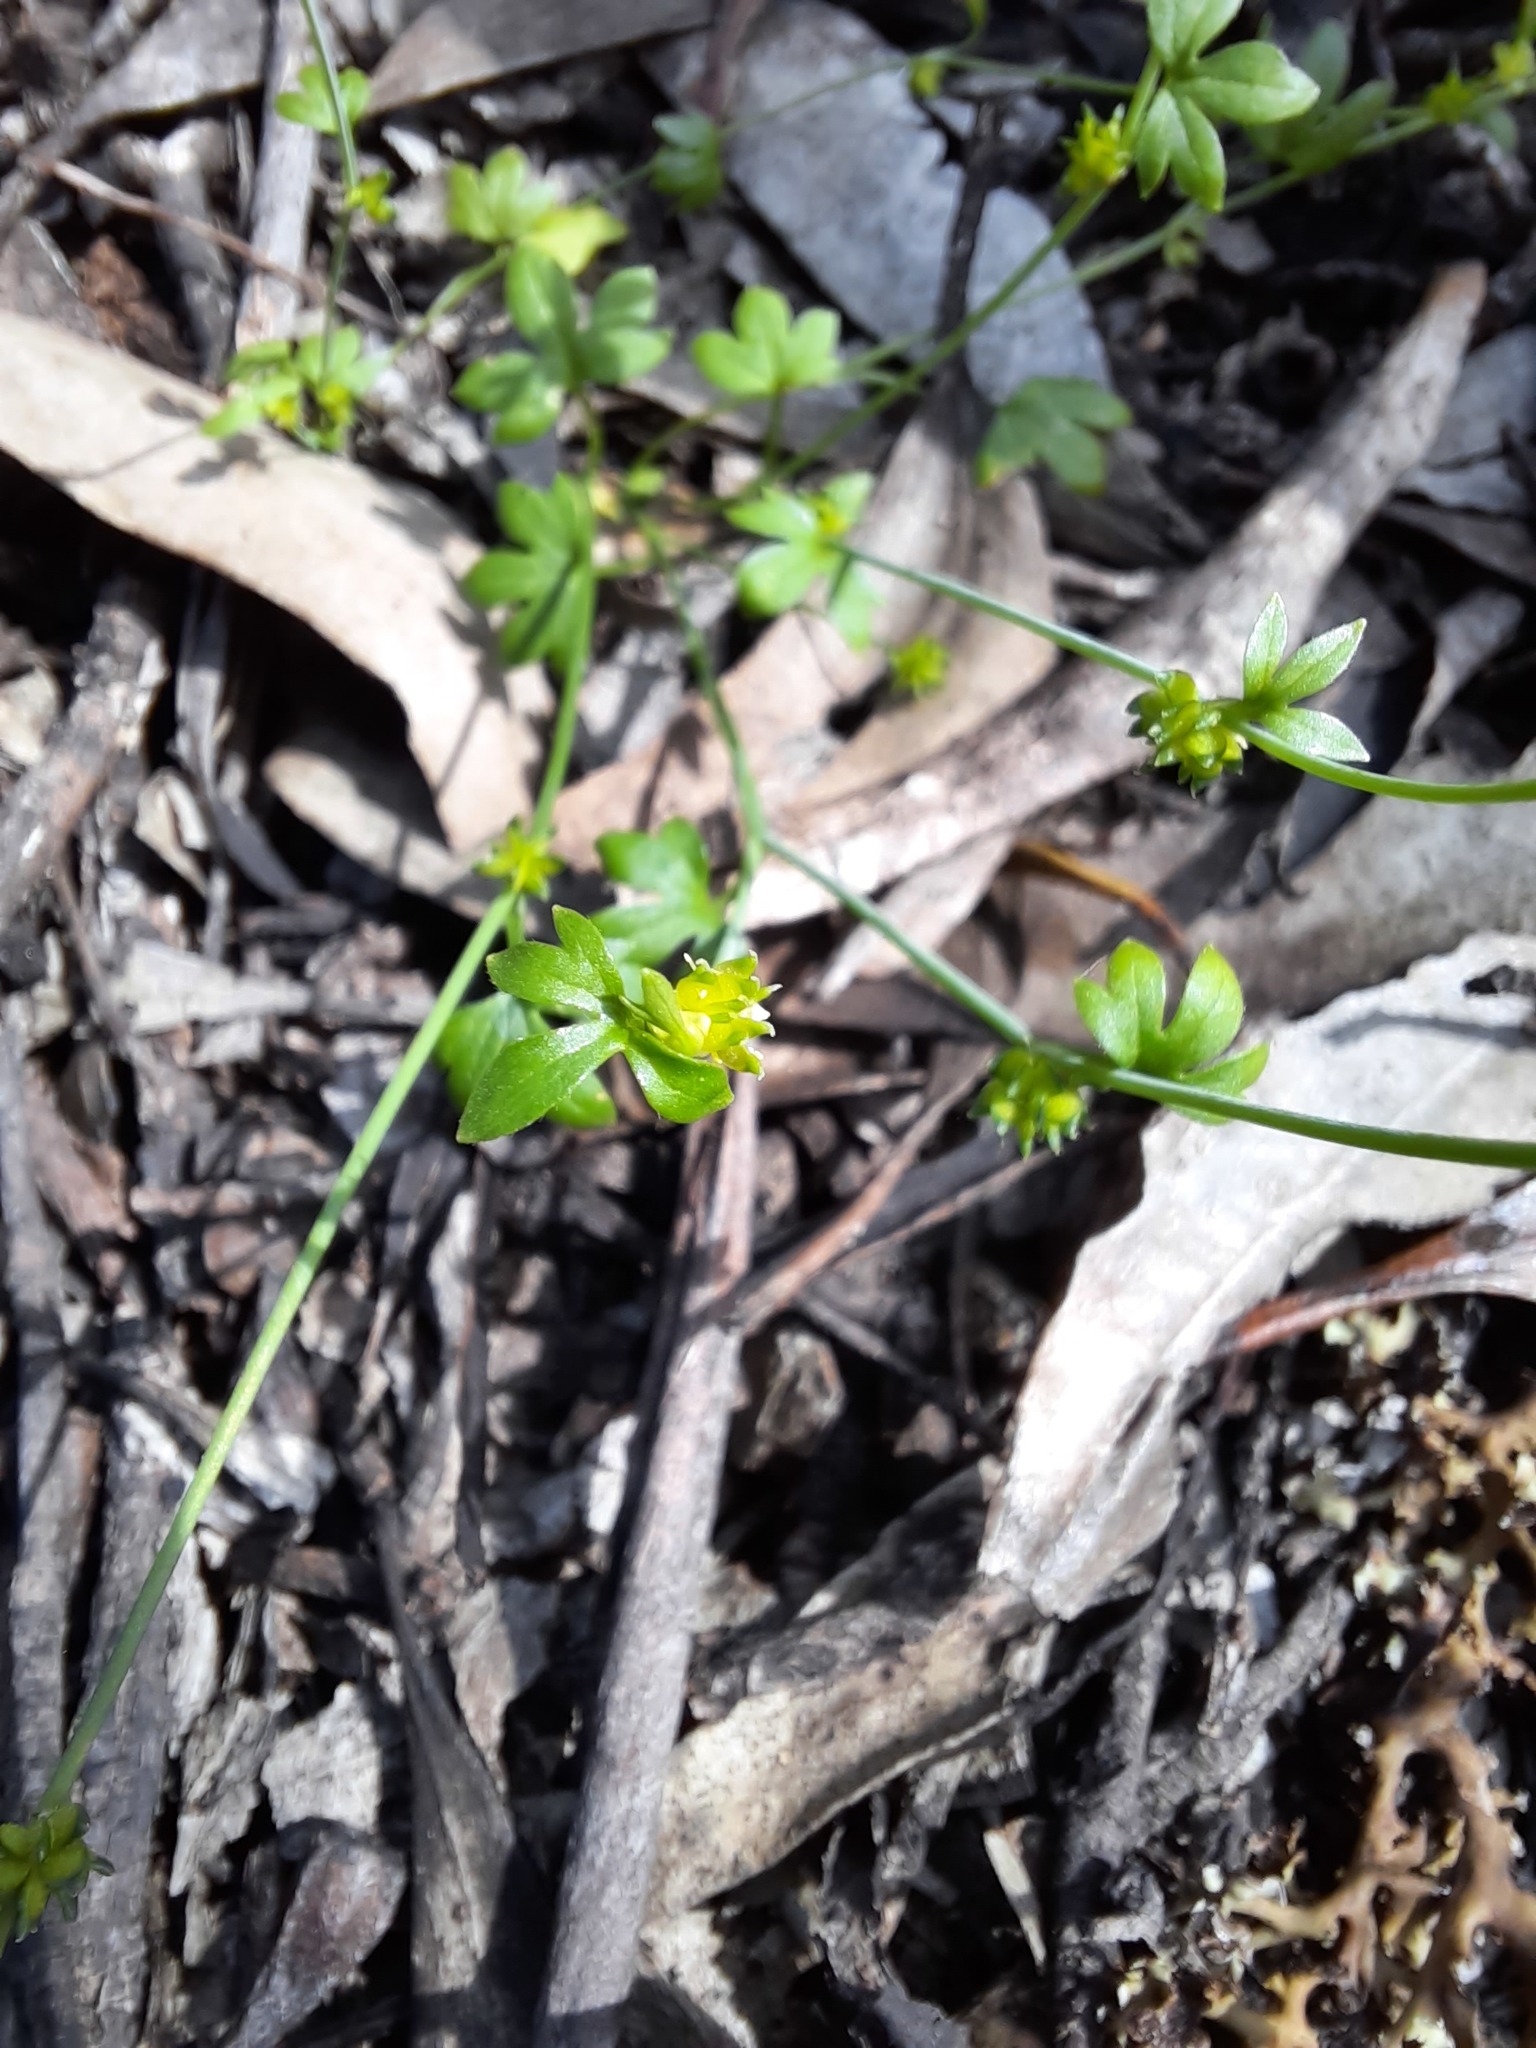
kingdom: Plantae
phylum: Tracheophyta
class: Magnoliopsida
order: Ranunculales
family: Ranunculaceae
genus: Ranunculus
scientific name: Ranunculus sessiliflorus
